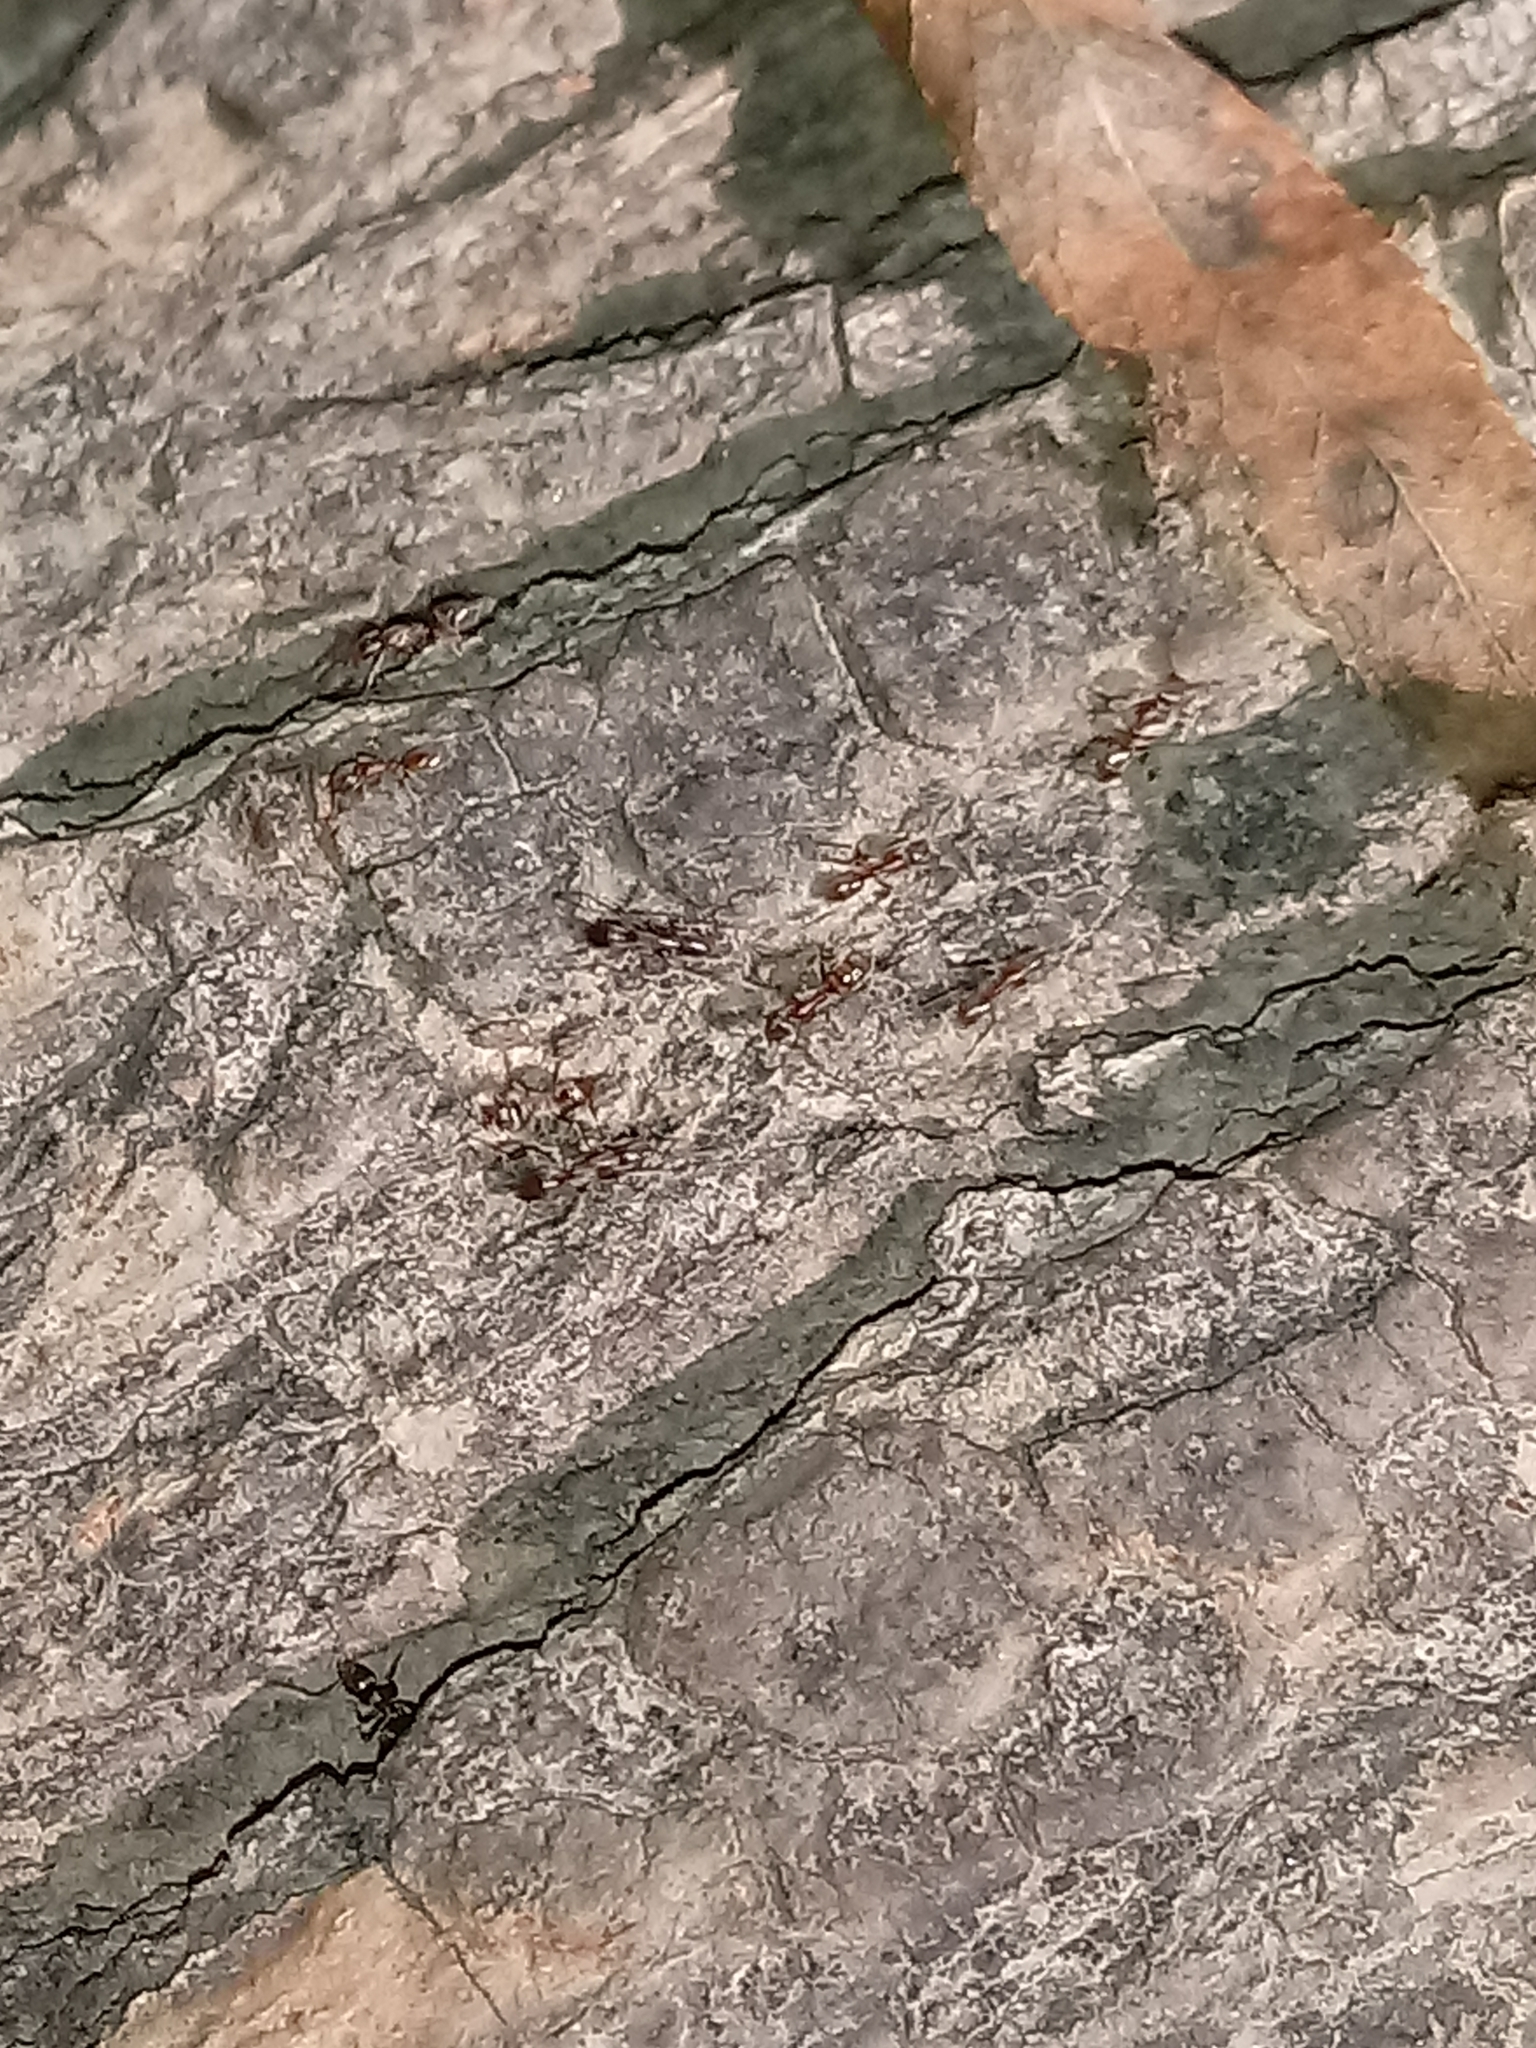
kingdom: Animalia
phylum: Arthropoda
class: Insecta
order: Hymenoptera
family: Formicidae
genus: Linepithema
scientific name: Linepithema humile
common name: Argentine ant
